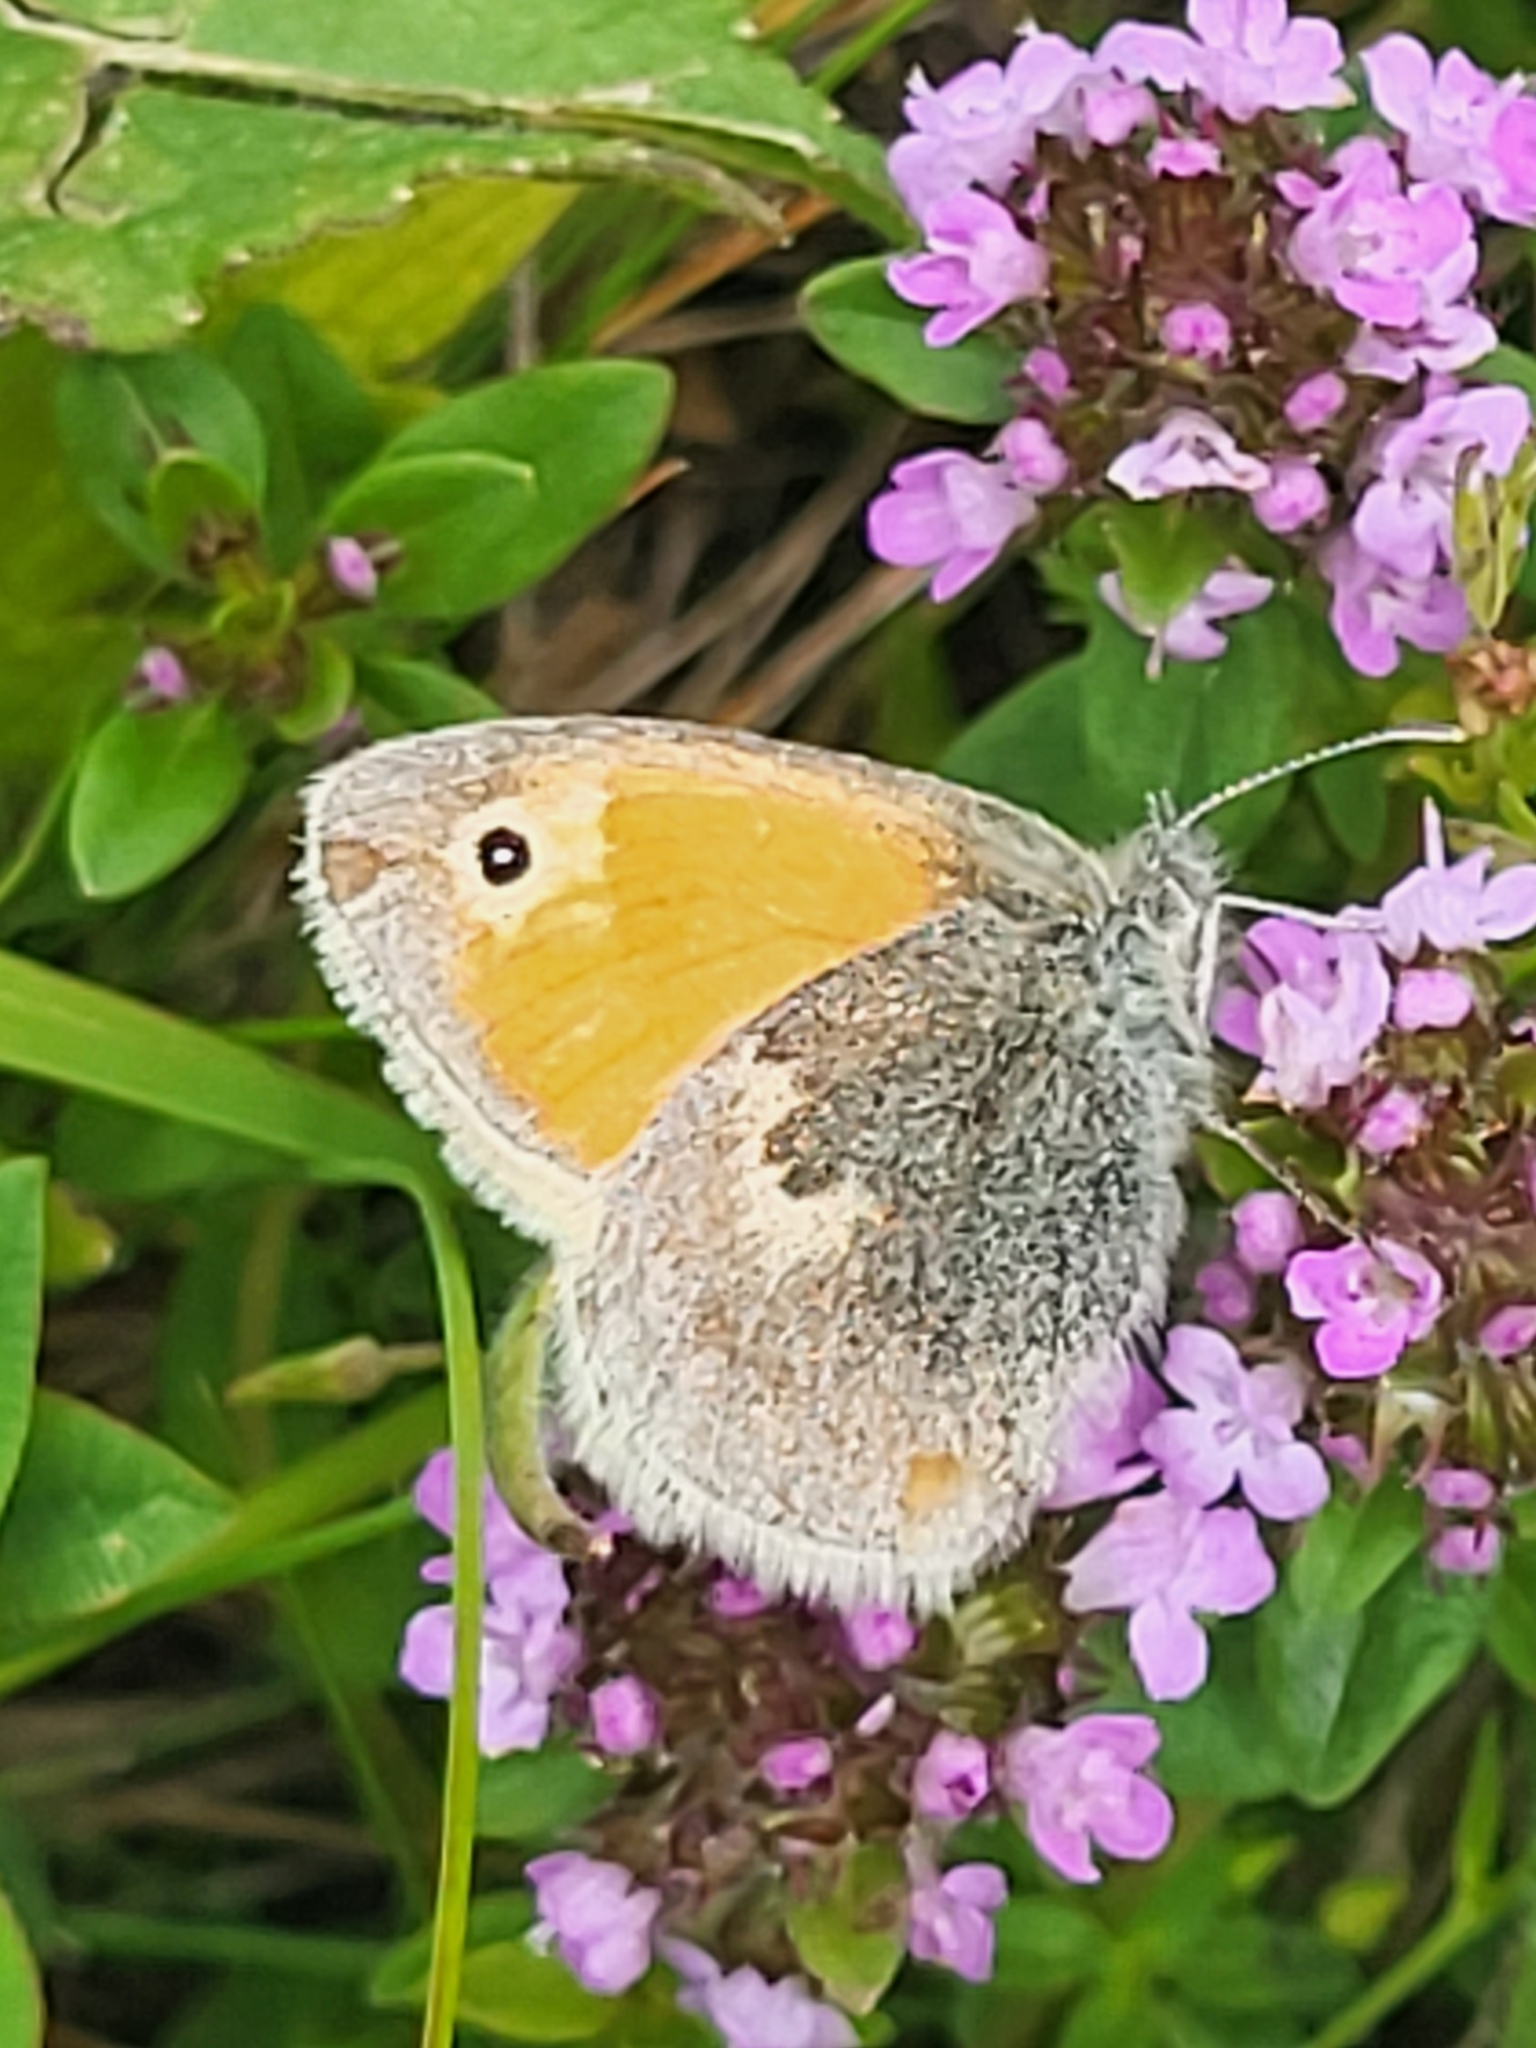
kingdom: Animalia
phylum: Arthropoda
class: Insecta
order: Lepidoptera
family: Nymphalidae
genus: Coenonympha
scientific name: Coenonympha pamphilus
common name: Small heath
